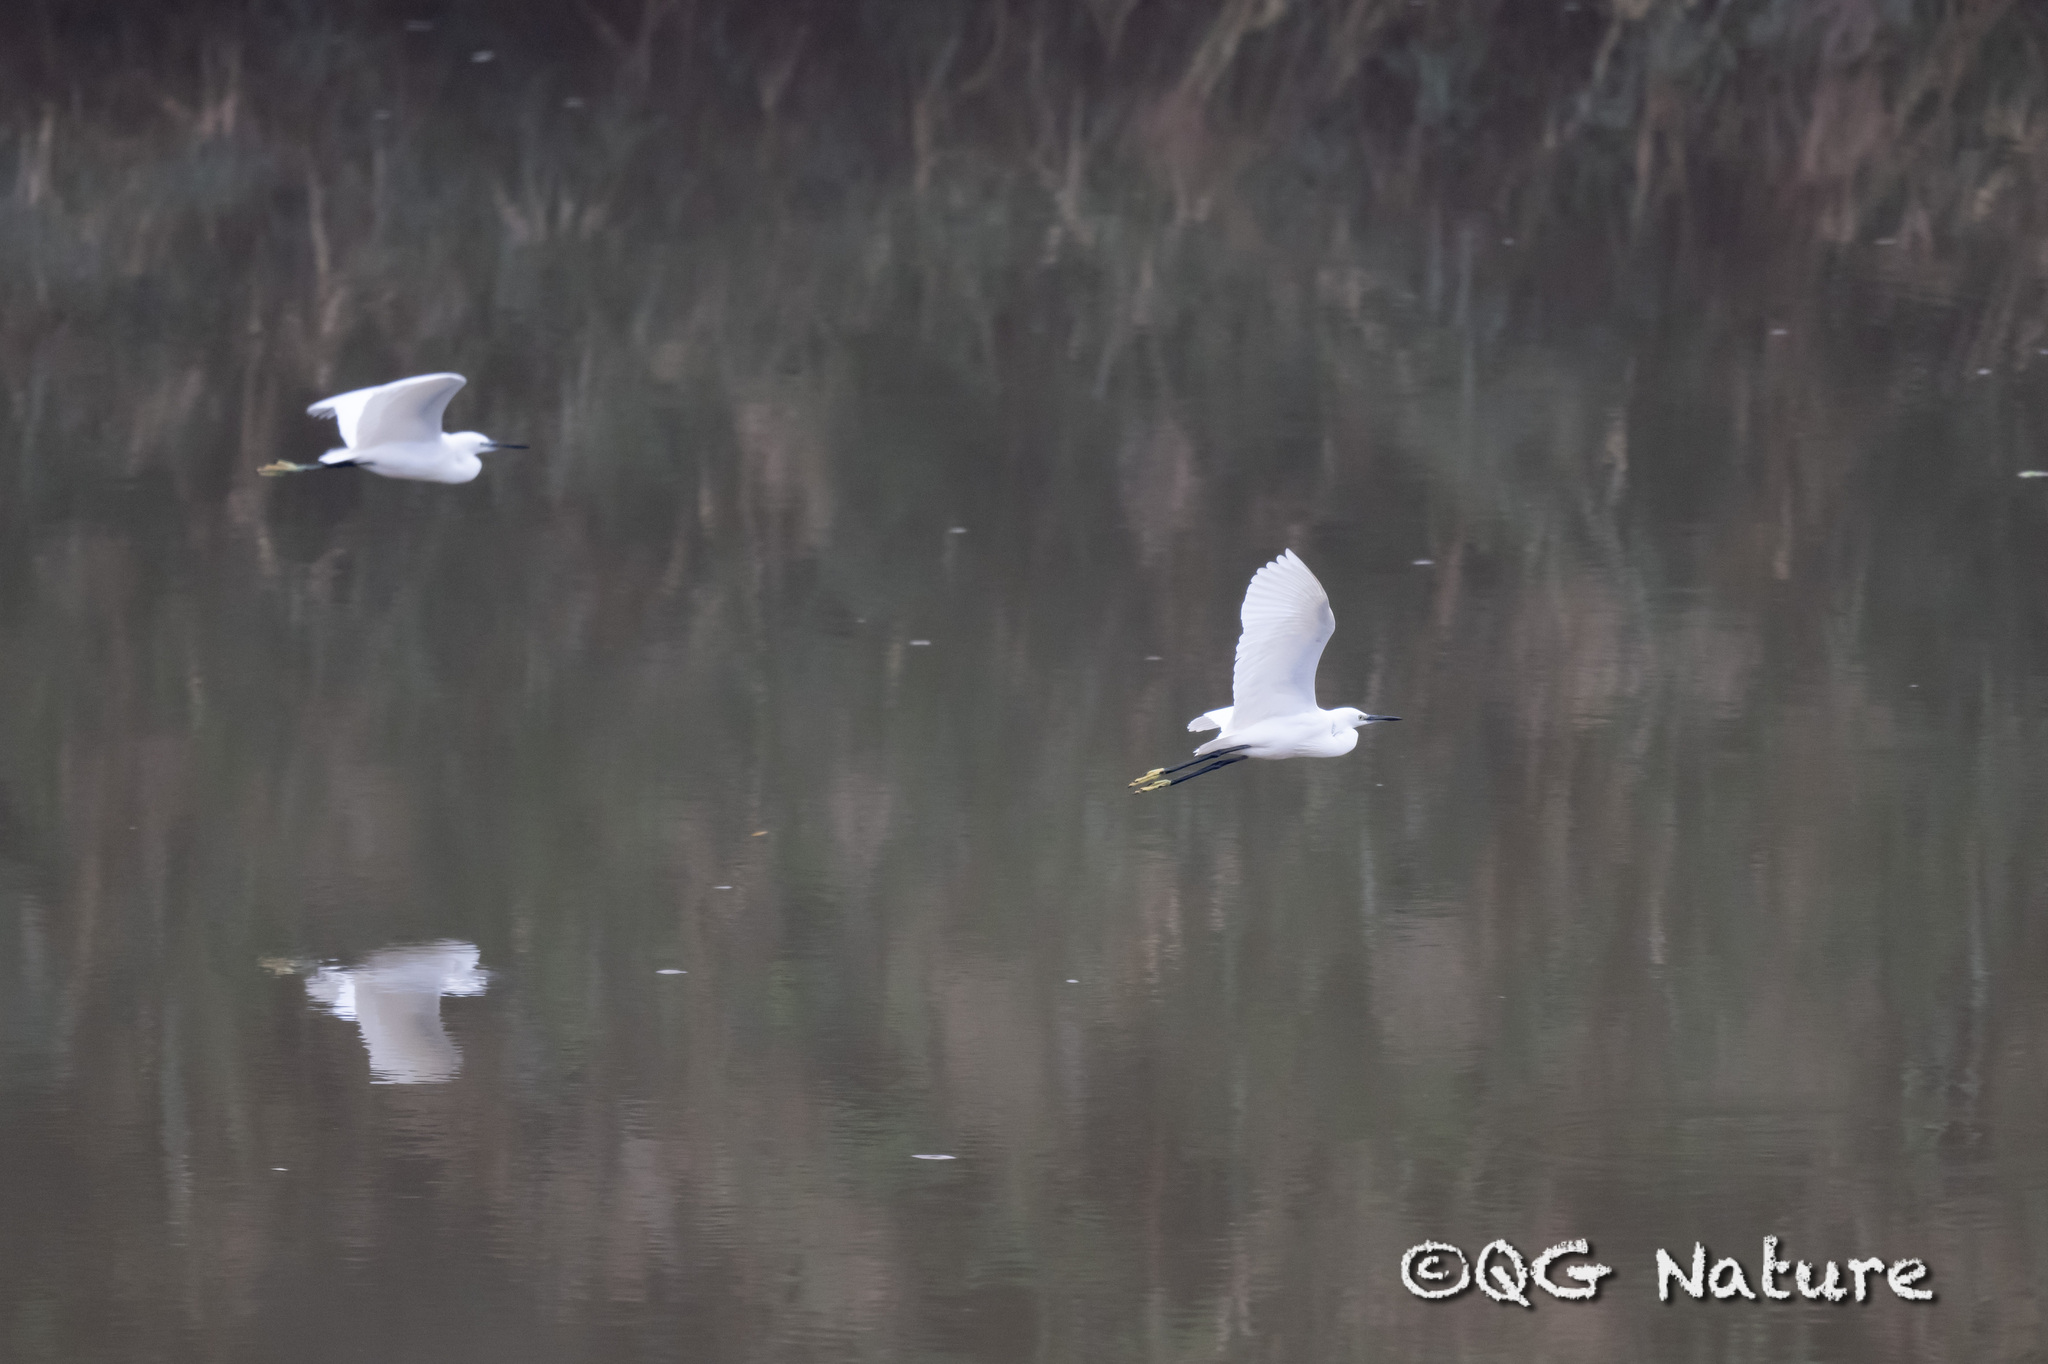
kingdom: Animalia
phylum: Chordata
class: Aves
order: Pelecaniformes
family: Ardeidae
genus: Egretta
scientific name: Egretta garzetta
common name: Little egret
